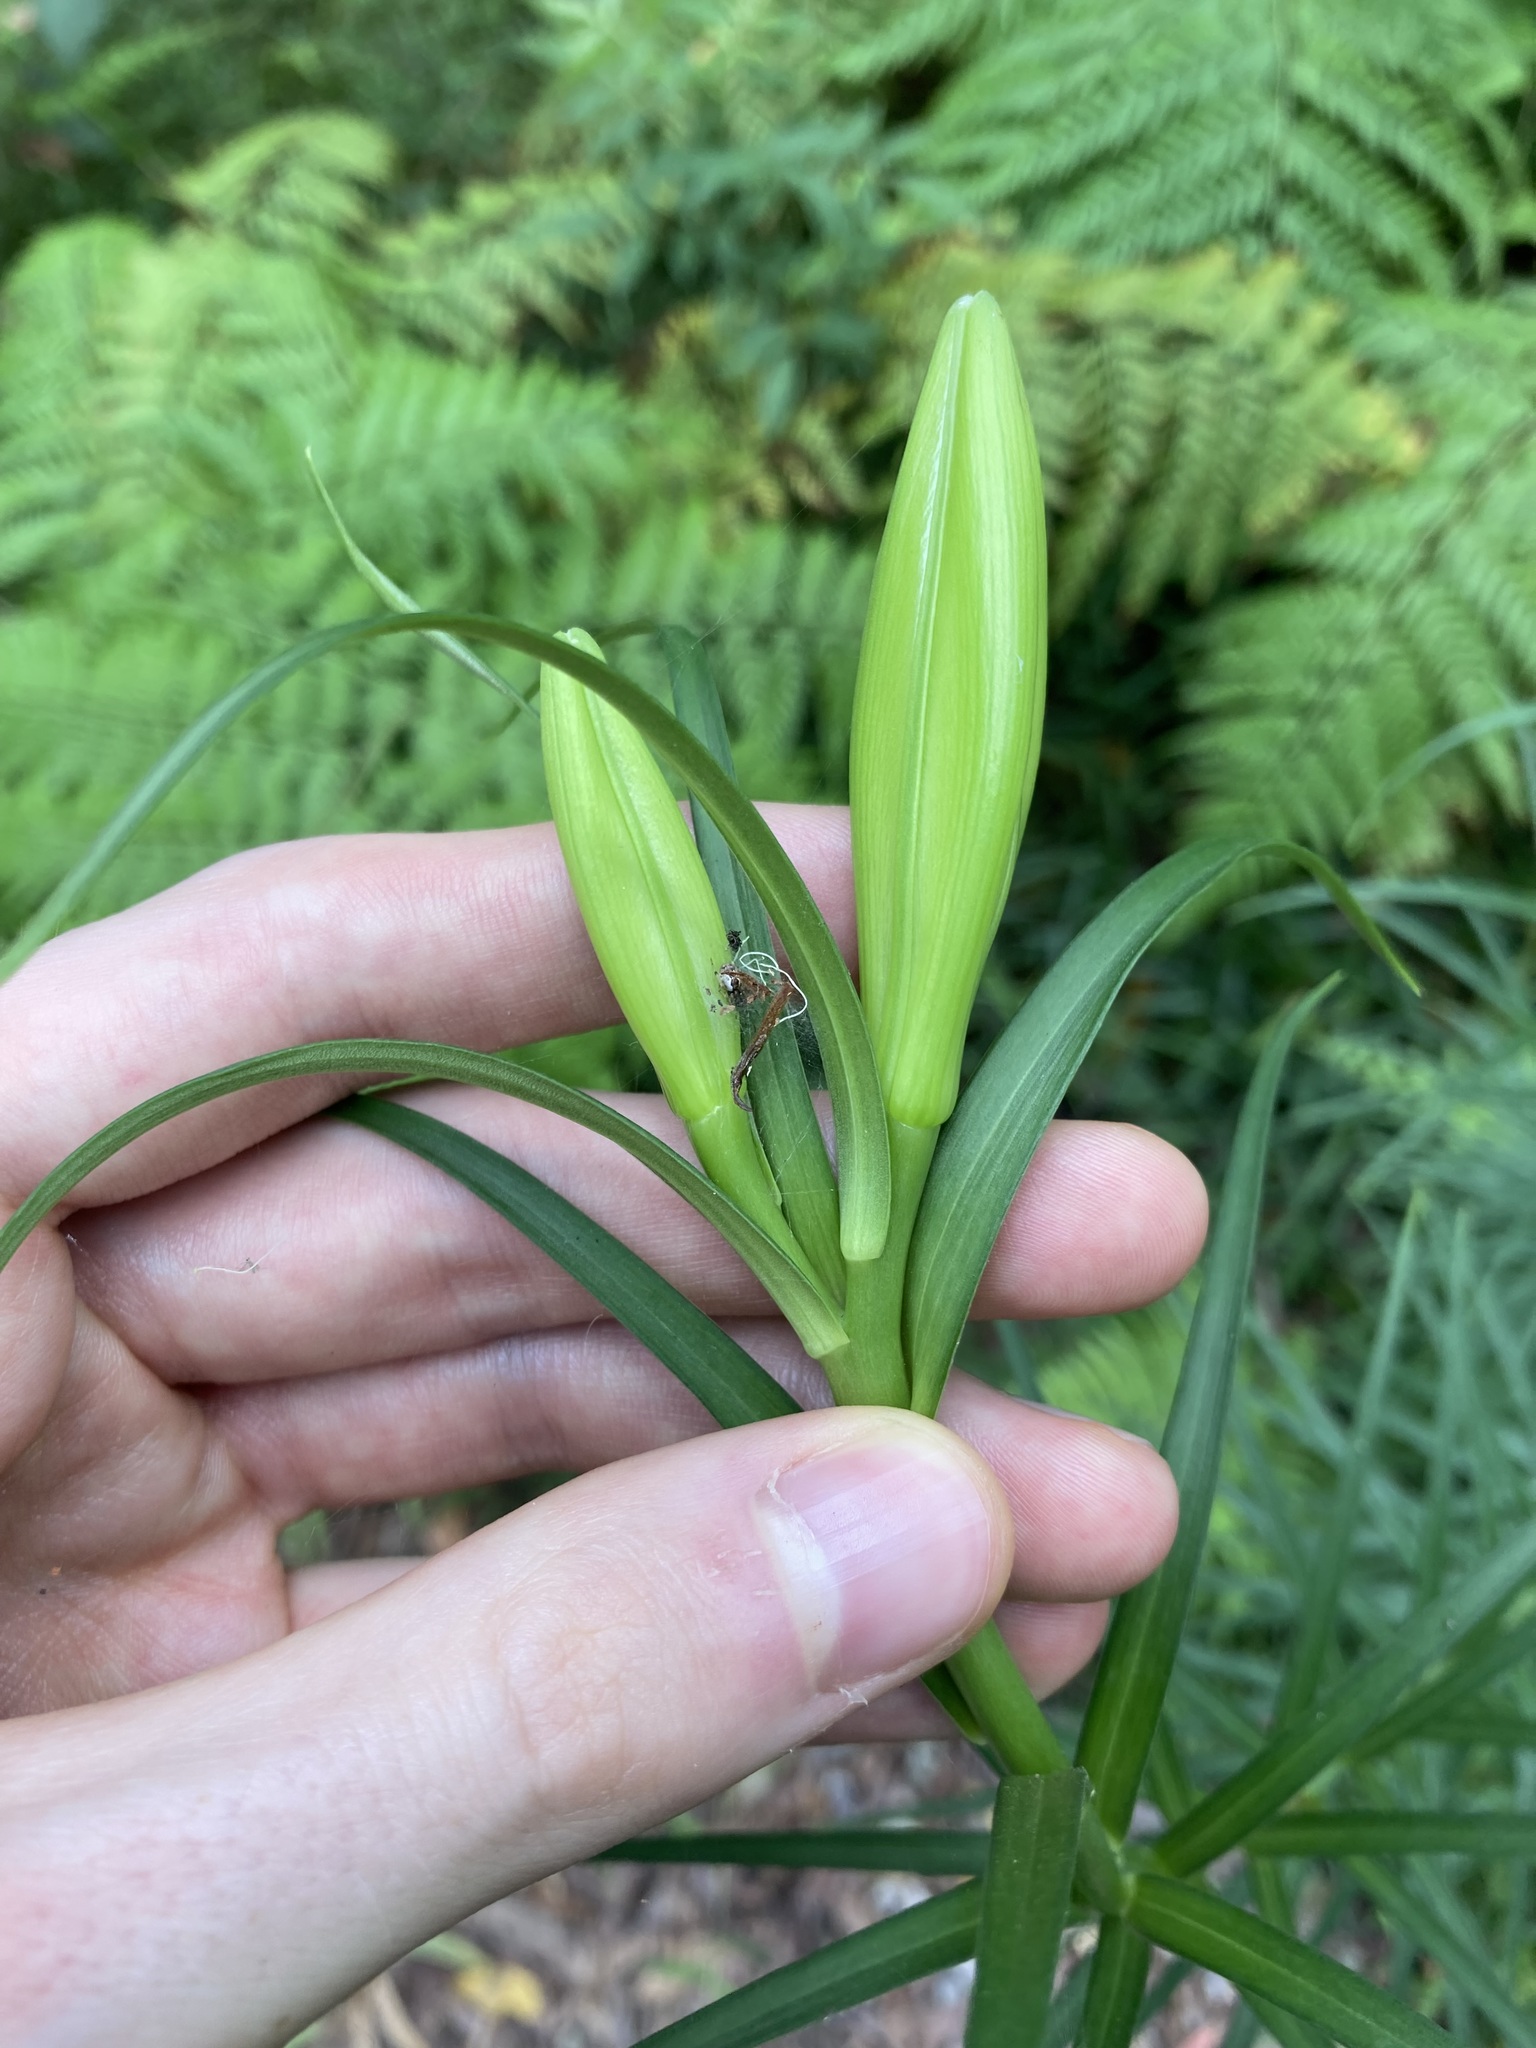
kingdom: Plantae
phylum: Tracheophyta
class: Liliopsida
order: Liliales
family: Liliaceae
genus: Lilium
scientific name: Lilium formosanum
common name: Formosa lily
